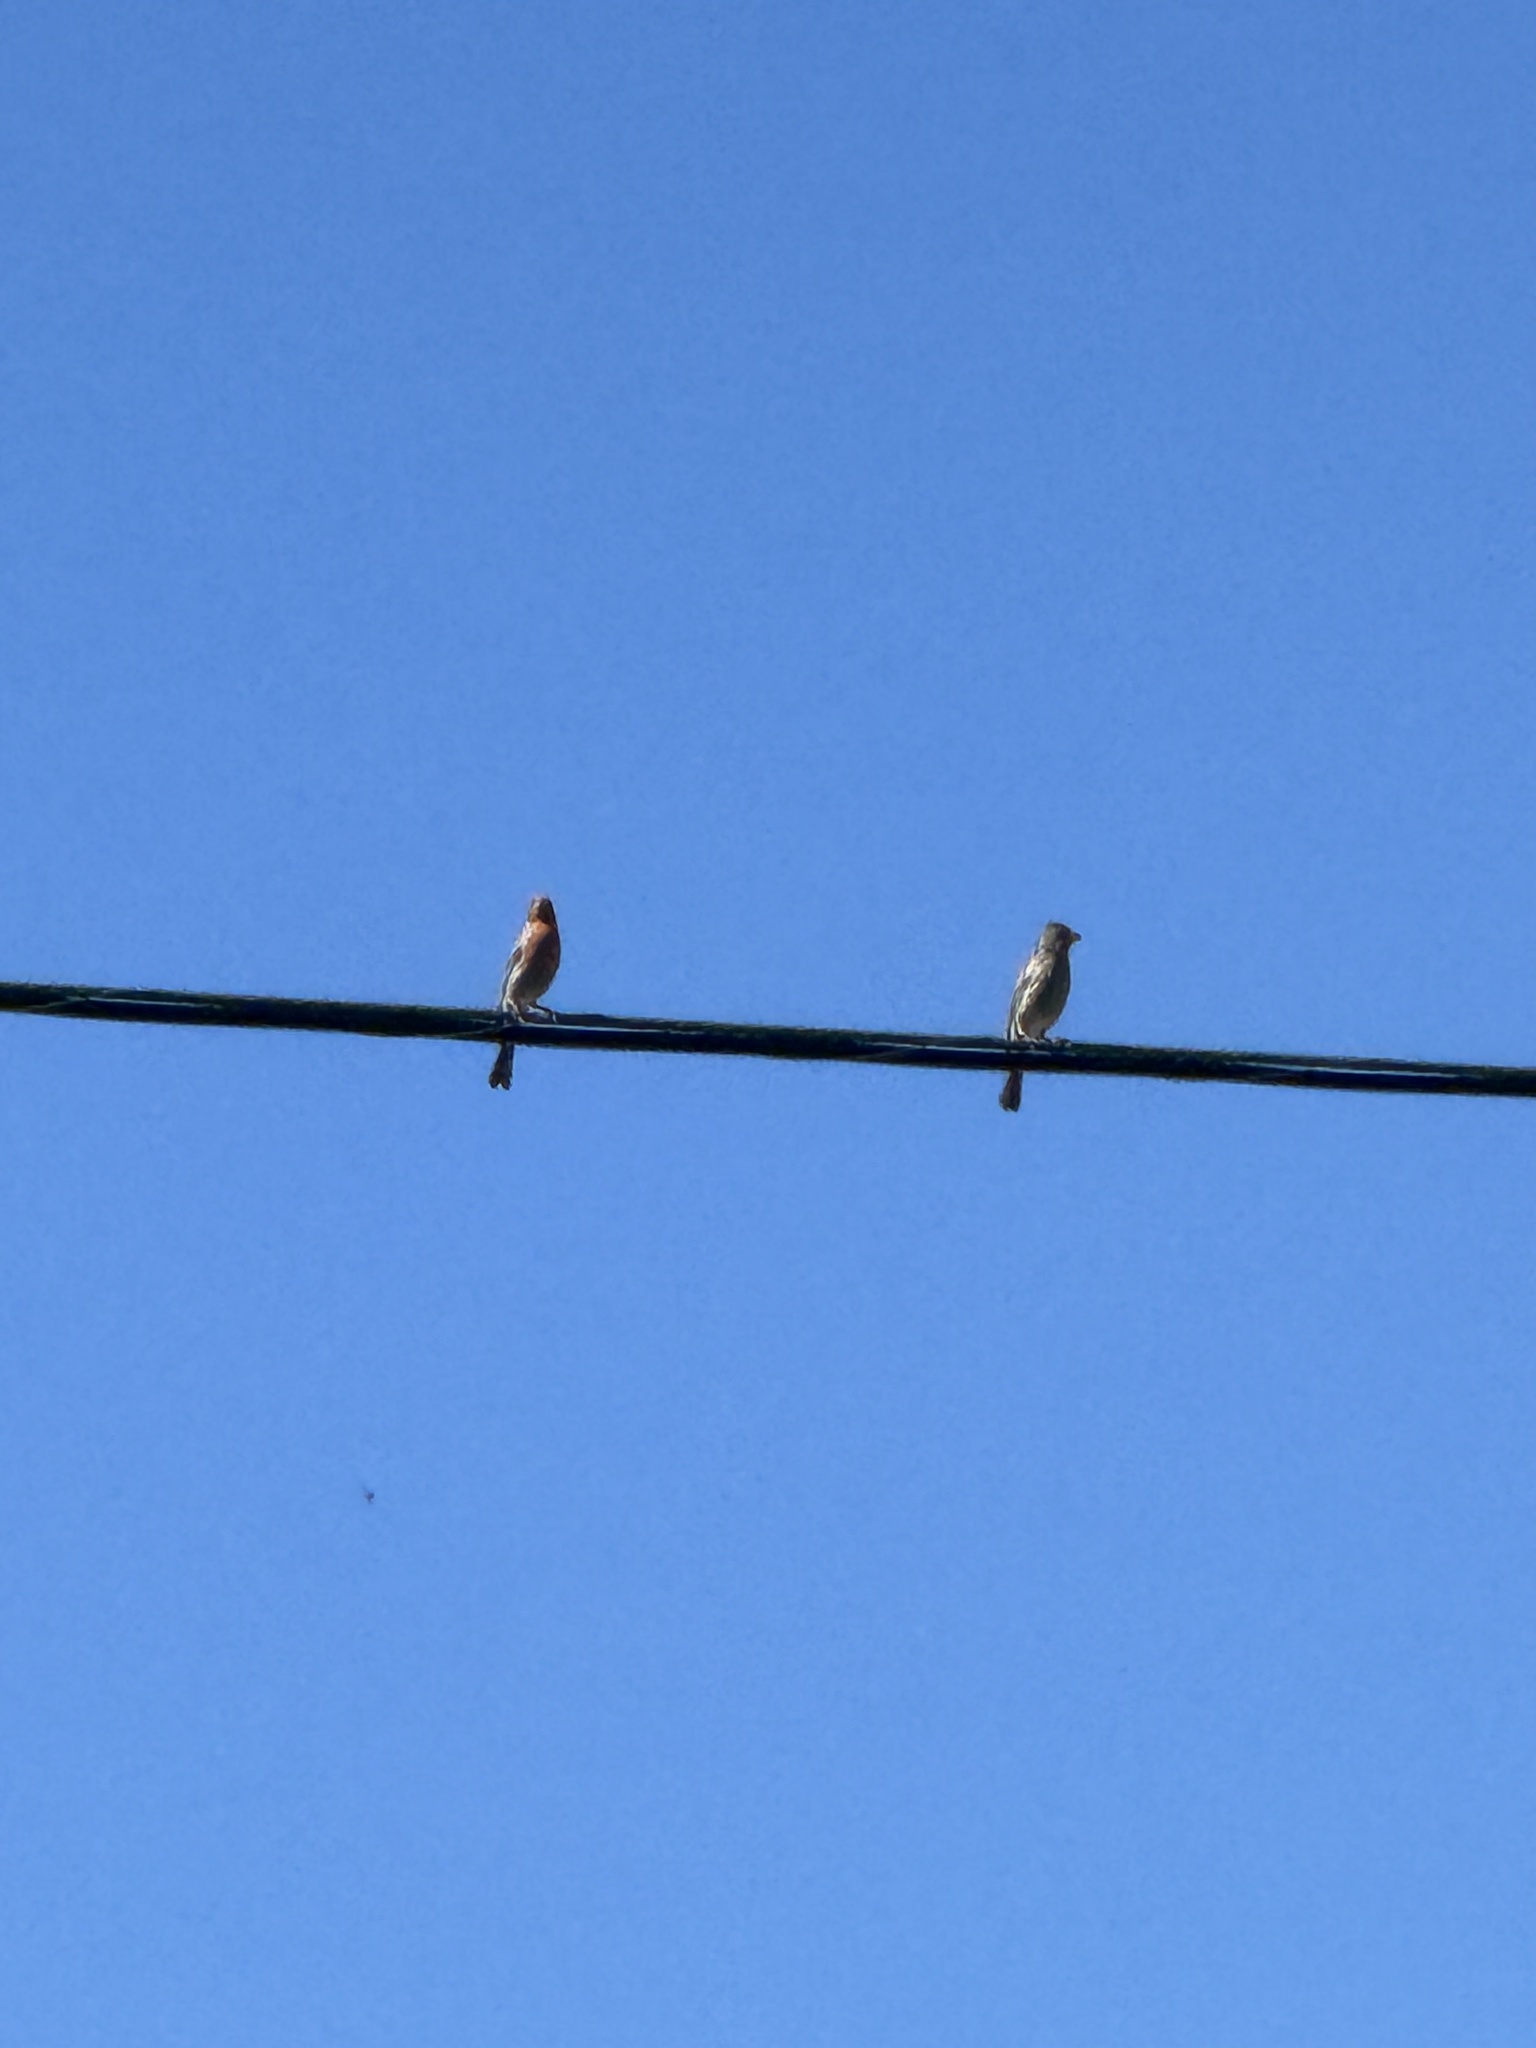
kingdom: Animalia
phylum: Chordata
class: Aves
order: Passeriformes
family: Fringillidae
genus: Haemorhous
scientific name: Haemorhous mexicanus
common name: House finch
